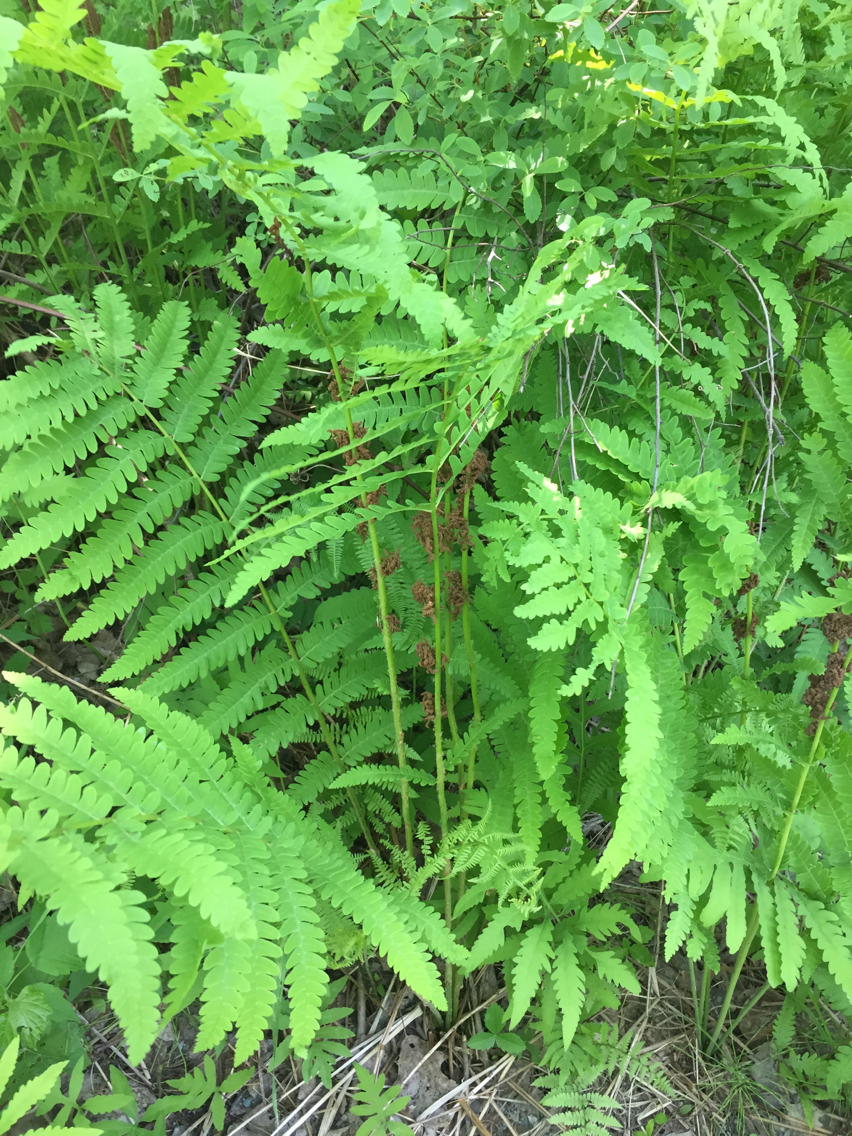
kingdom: Plantae
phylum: Tracheophyta
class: Polypodiopsida
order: Osmundales
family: Osmundaceae
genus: Claytosmunda
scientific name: Claytosmunda claytoniana
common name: Clayton's fern
